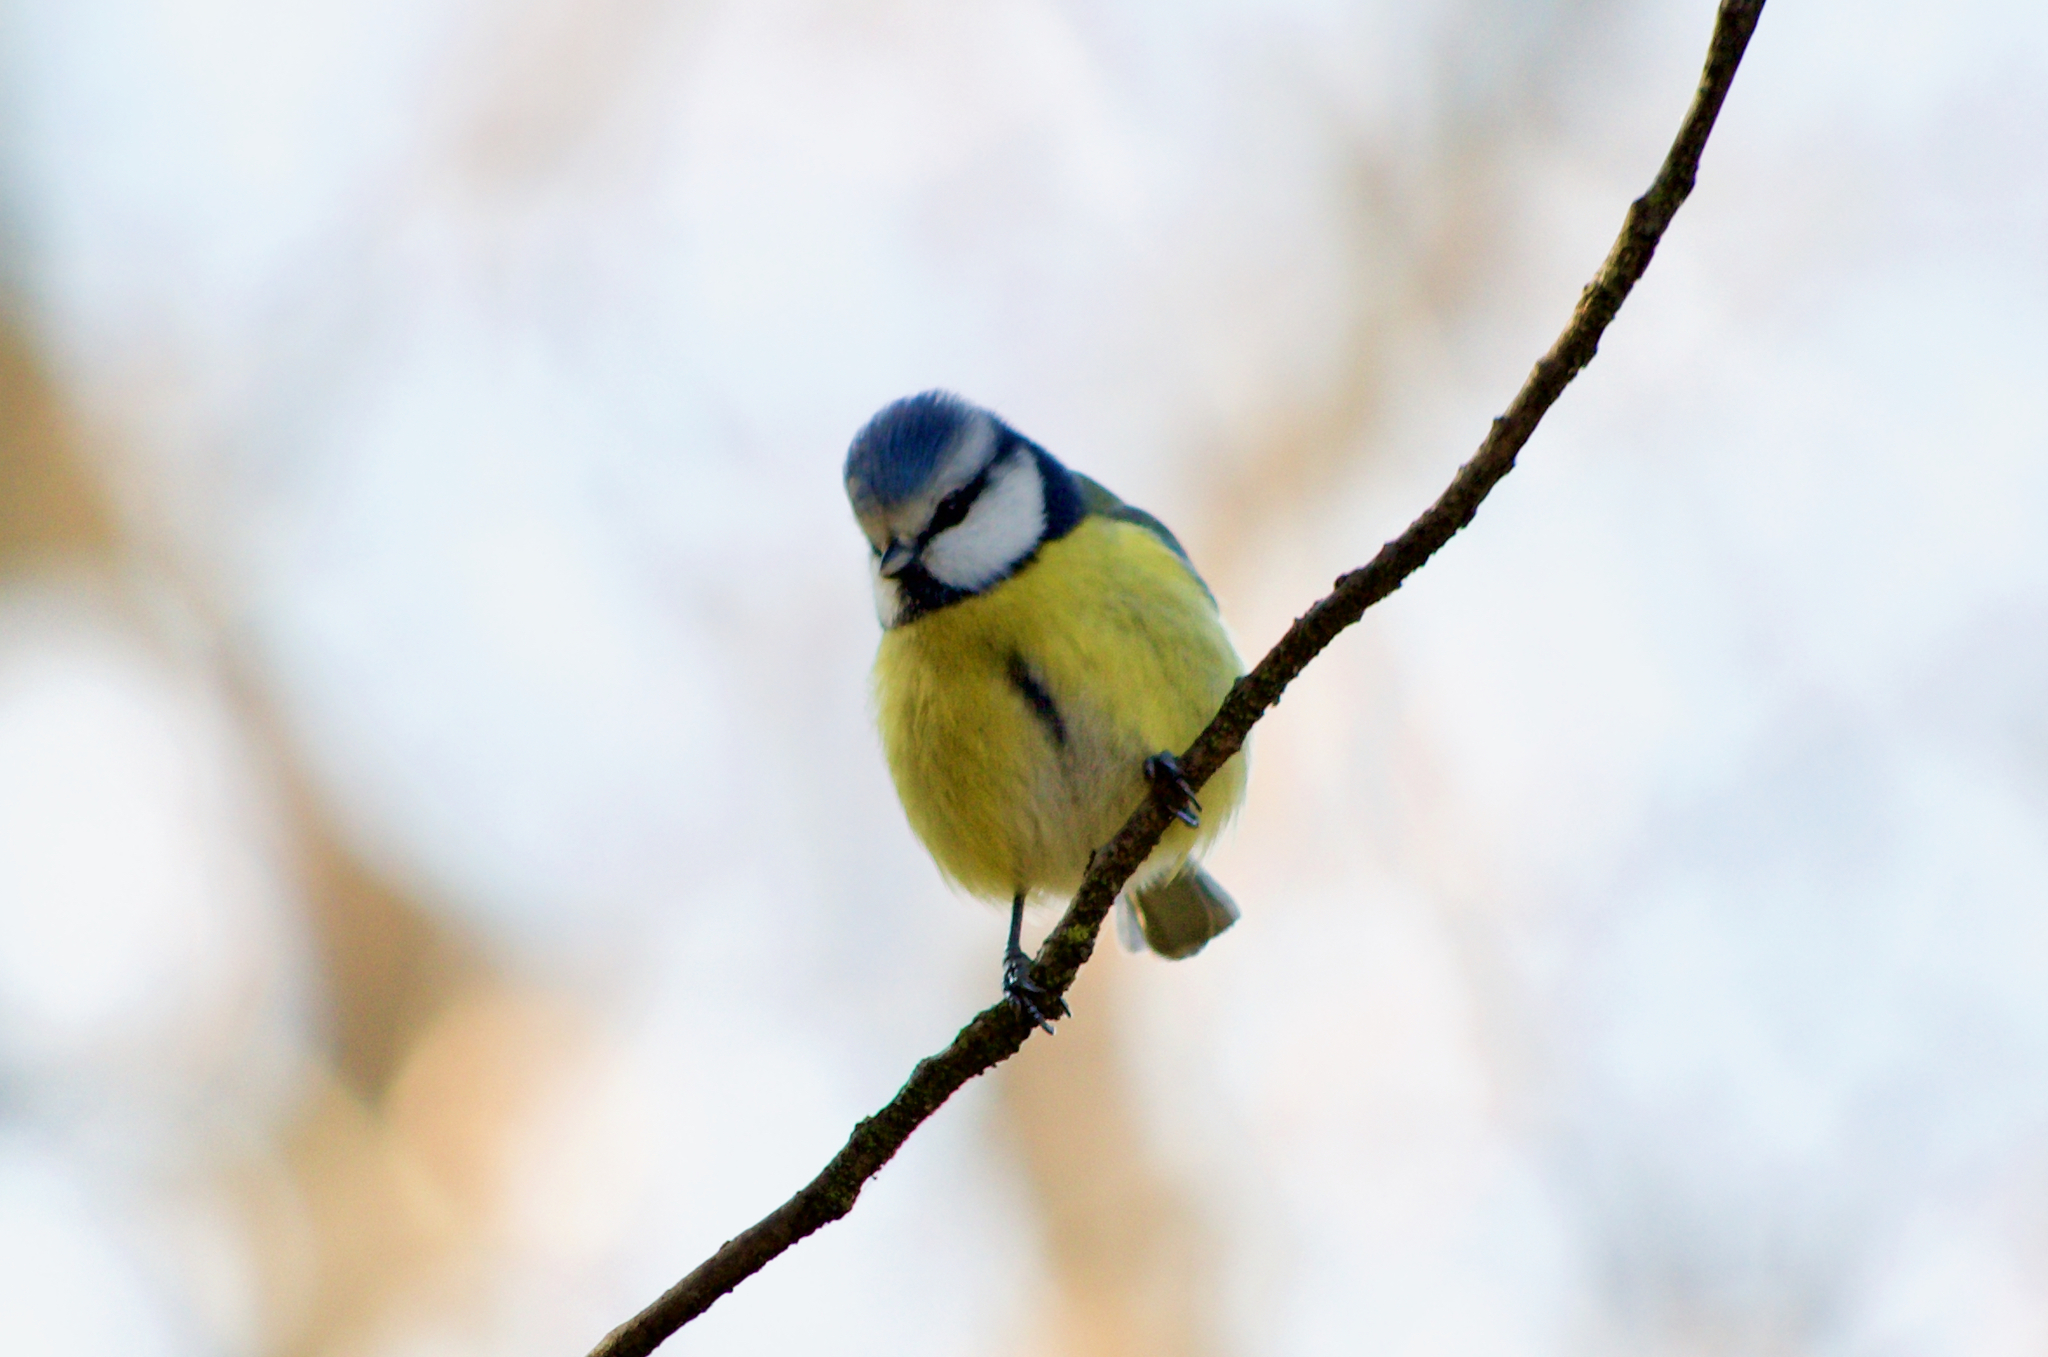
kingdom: Animalia
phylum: Chordata
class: Aves
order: Passeriformes
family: Paridae
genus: Cyanistes
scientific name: Cyanistes caeruleus
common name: Eurasian blue tit
